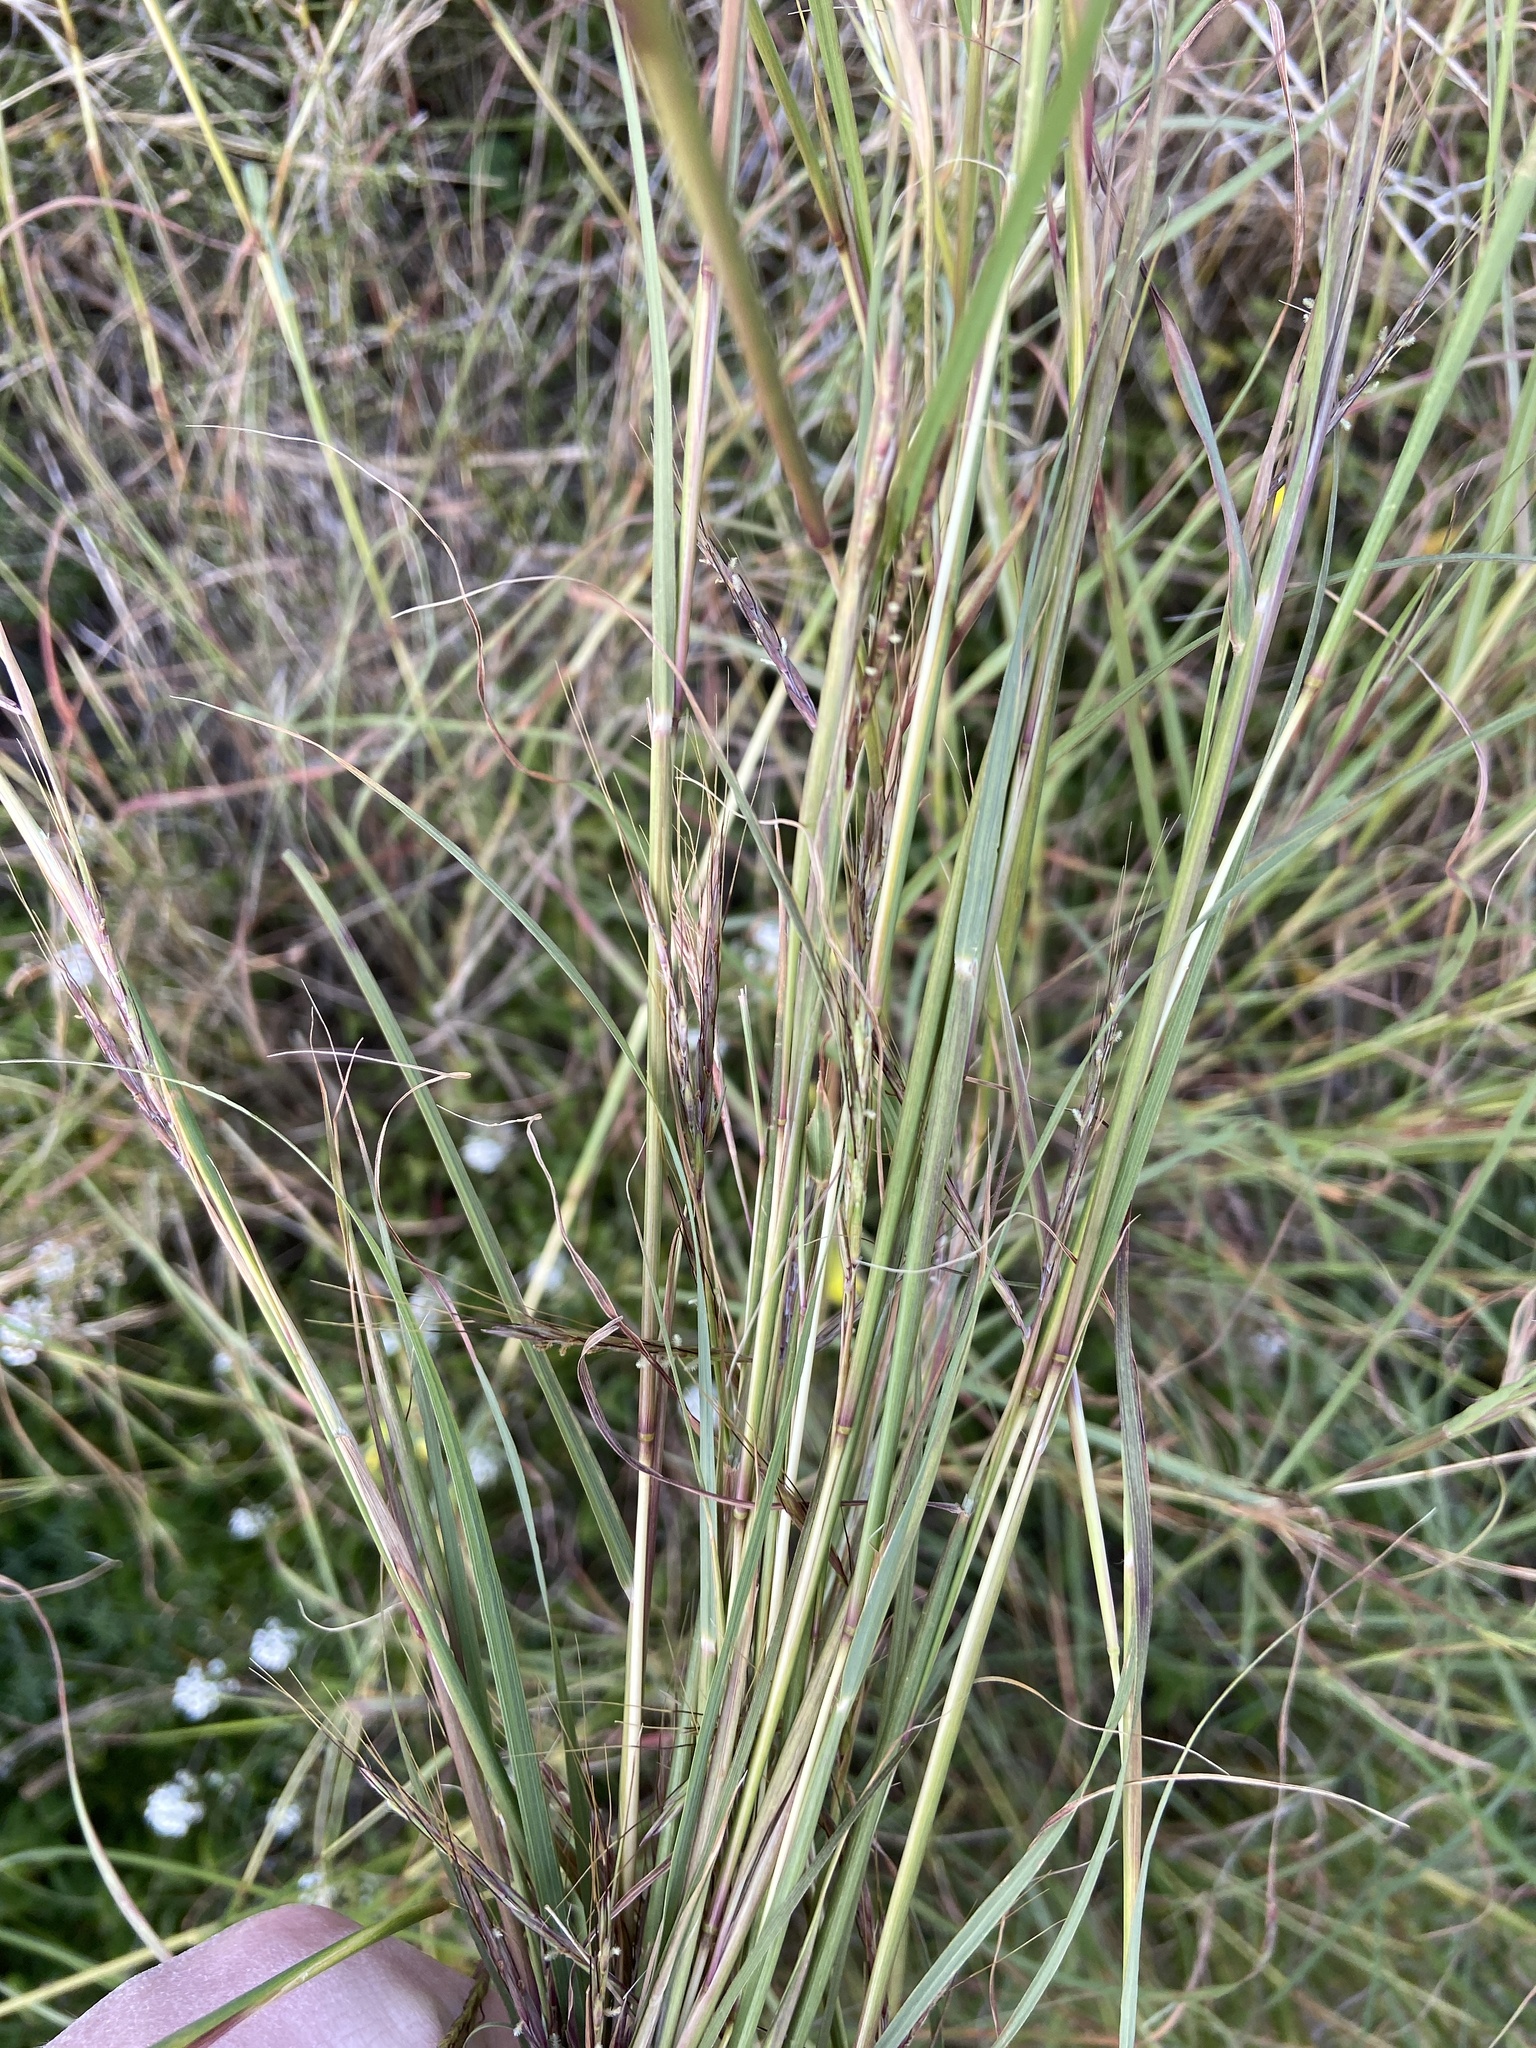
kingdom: Plantae
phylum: Tracheophyta
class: Liliopsida
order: Poales
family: Poaceae
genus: Hyparrhenia
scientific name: Hyparrhenia hirta
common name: Thatching grass
